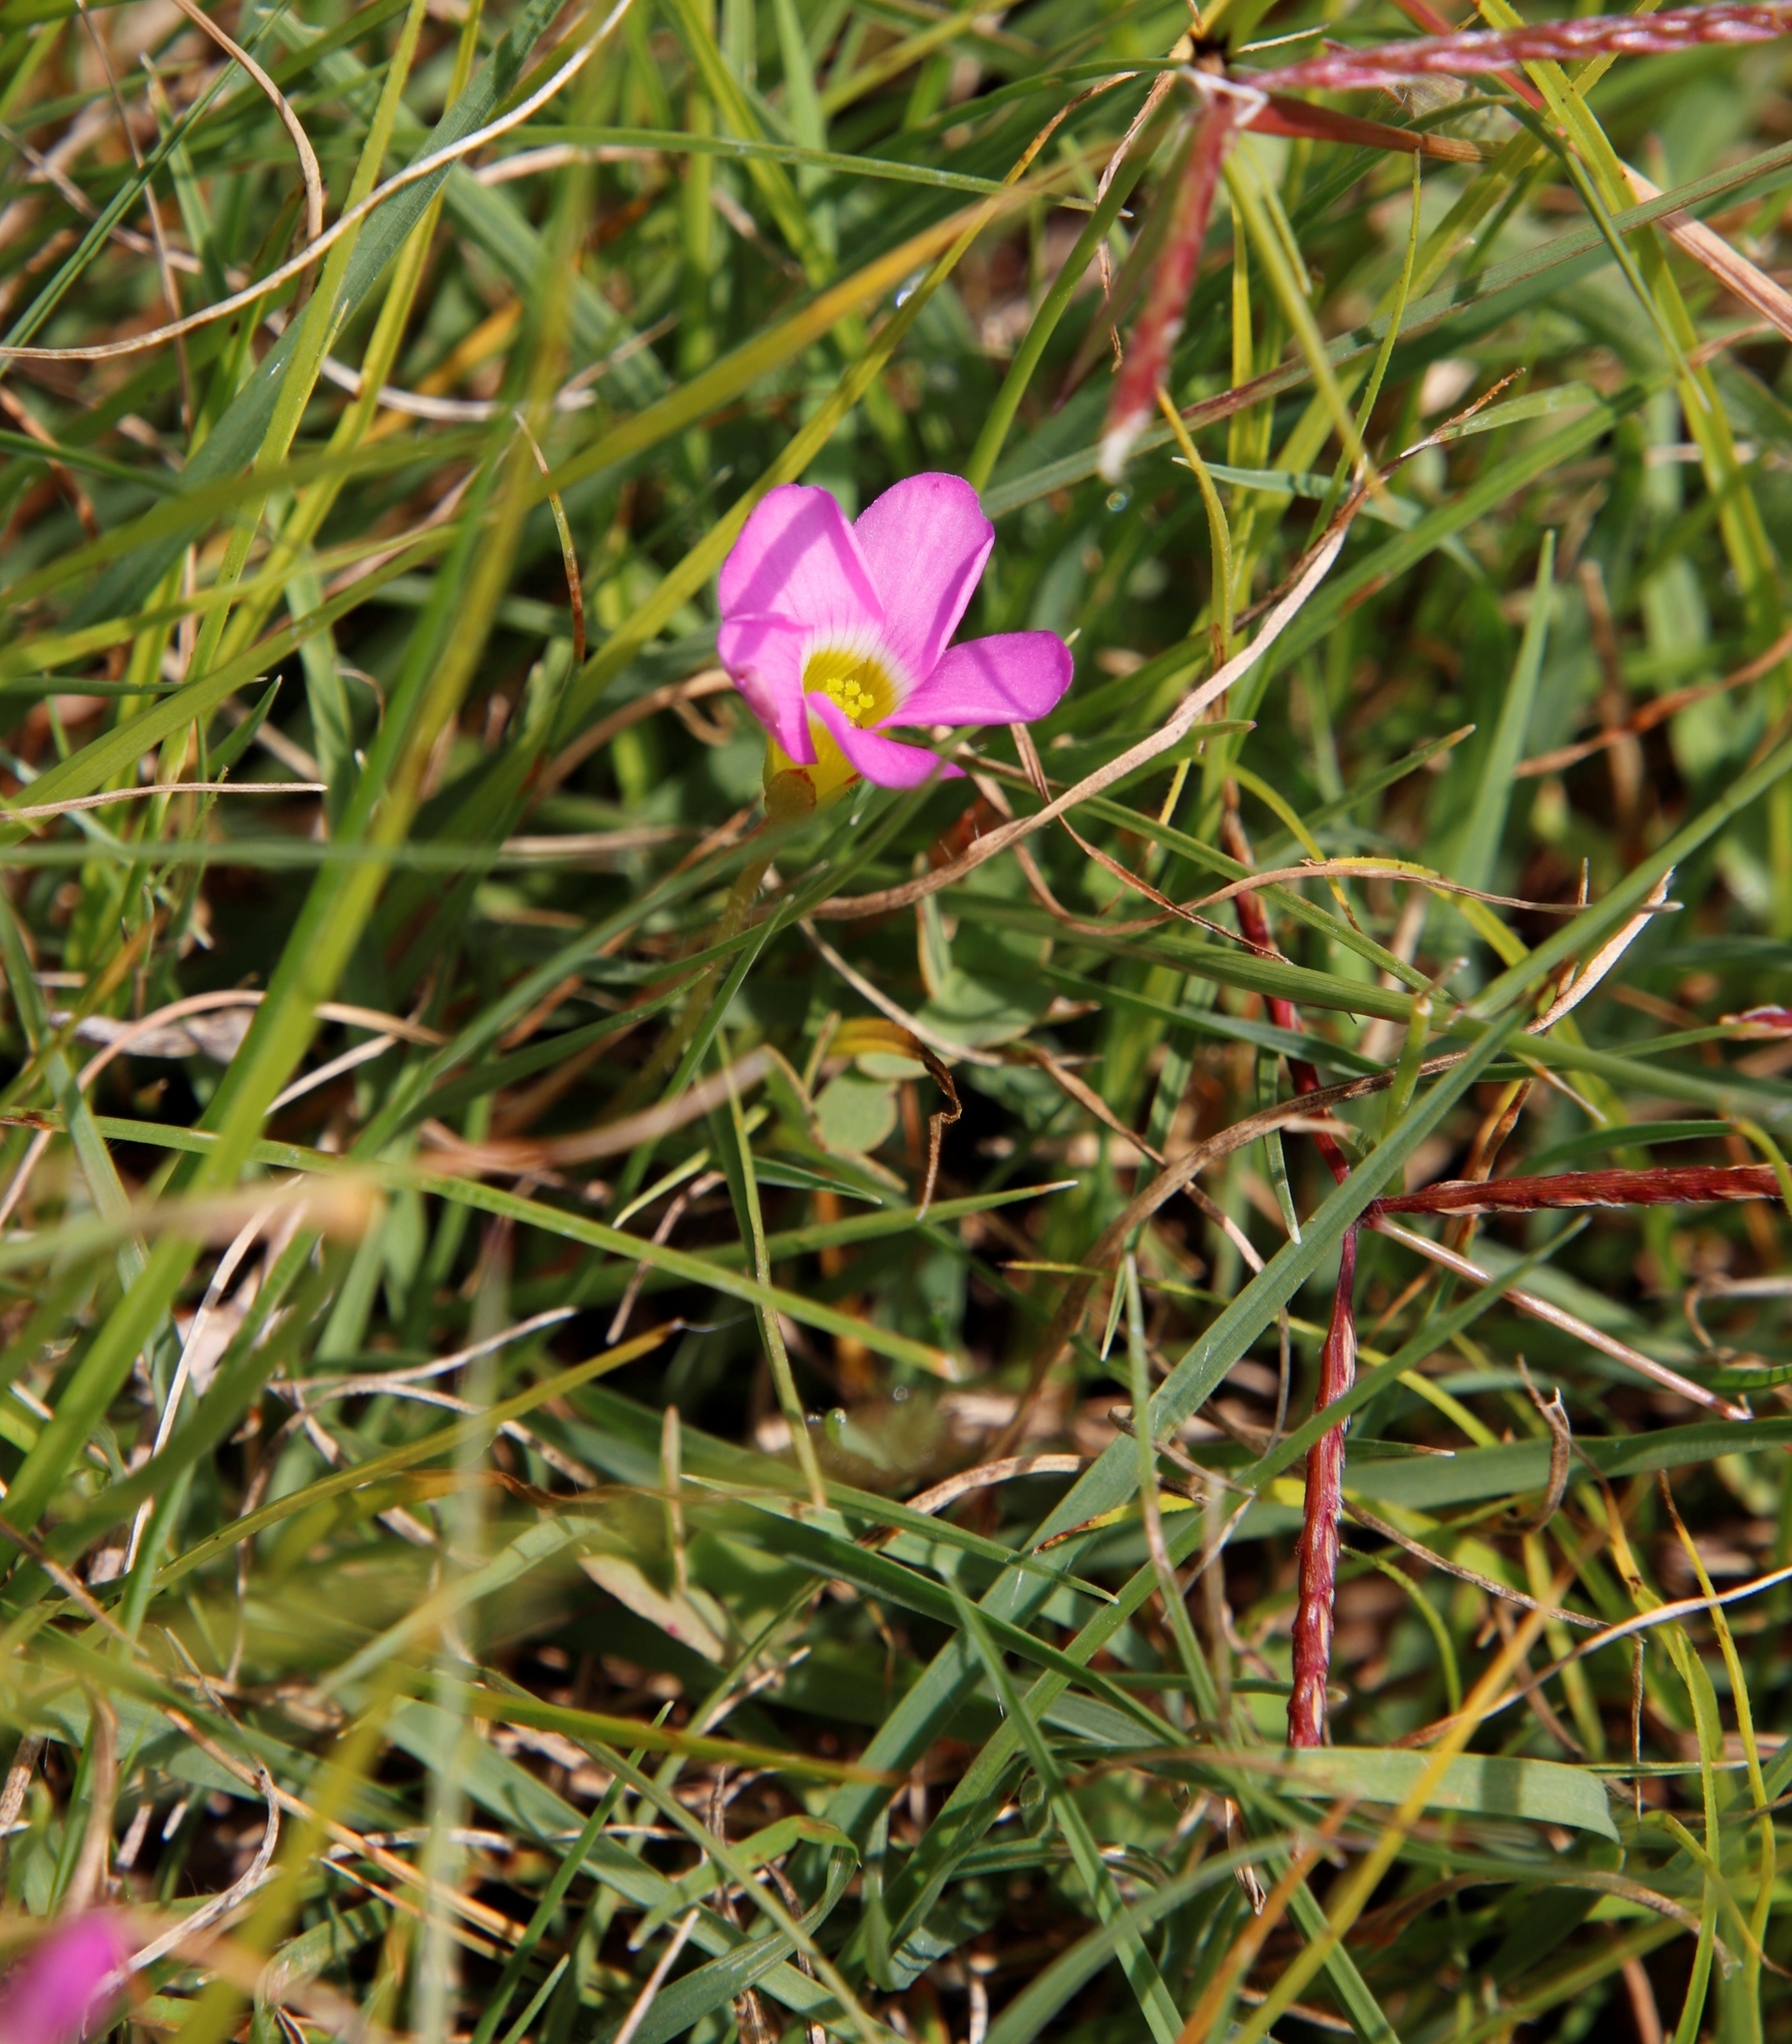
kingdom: Plantae
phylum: Tracheophyta
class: Magnoliopsida
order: Oxalidales
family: Oxalidaceae
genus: Oxalis
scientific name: Oxalis obliquifolia
